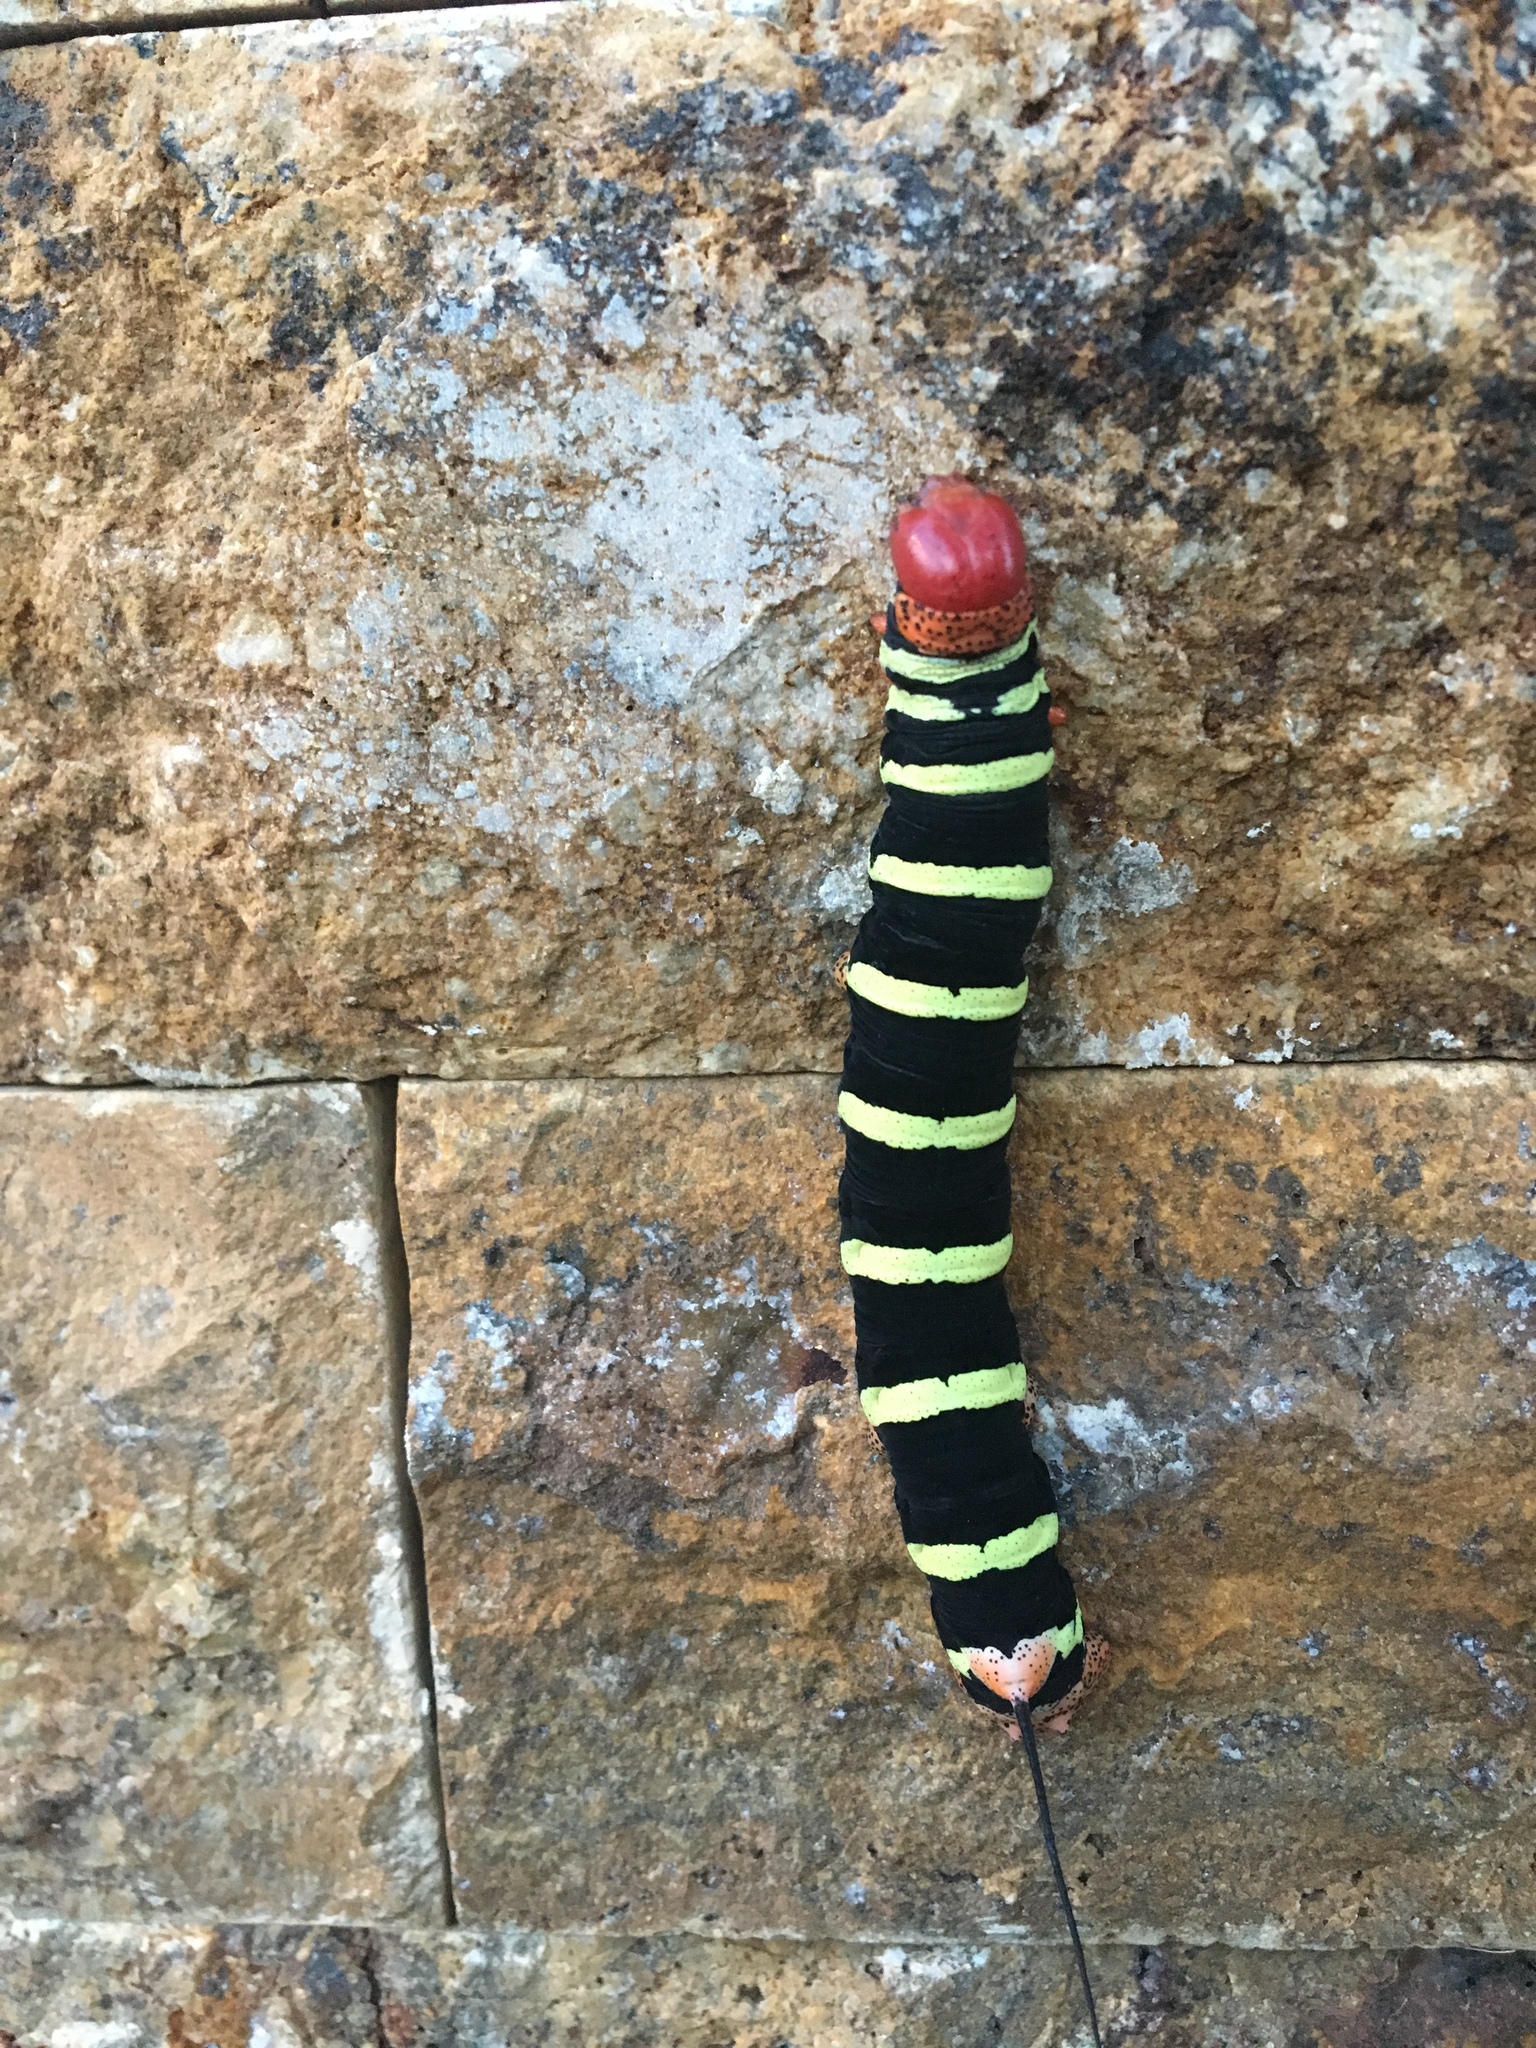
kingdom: Animalia
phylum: Arthropoda
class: Insecta
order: Lepidoptera
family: Sphingidae
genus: Pseudosphinx
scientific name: Pseudosphinx tetrio
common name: Tetrio sphinx
